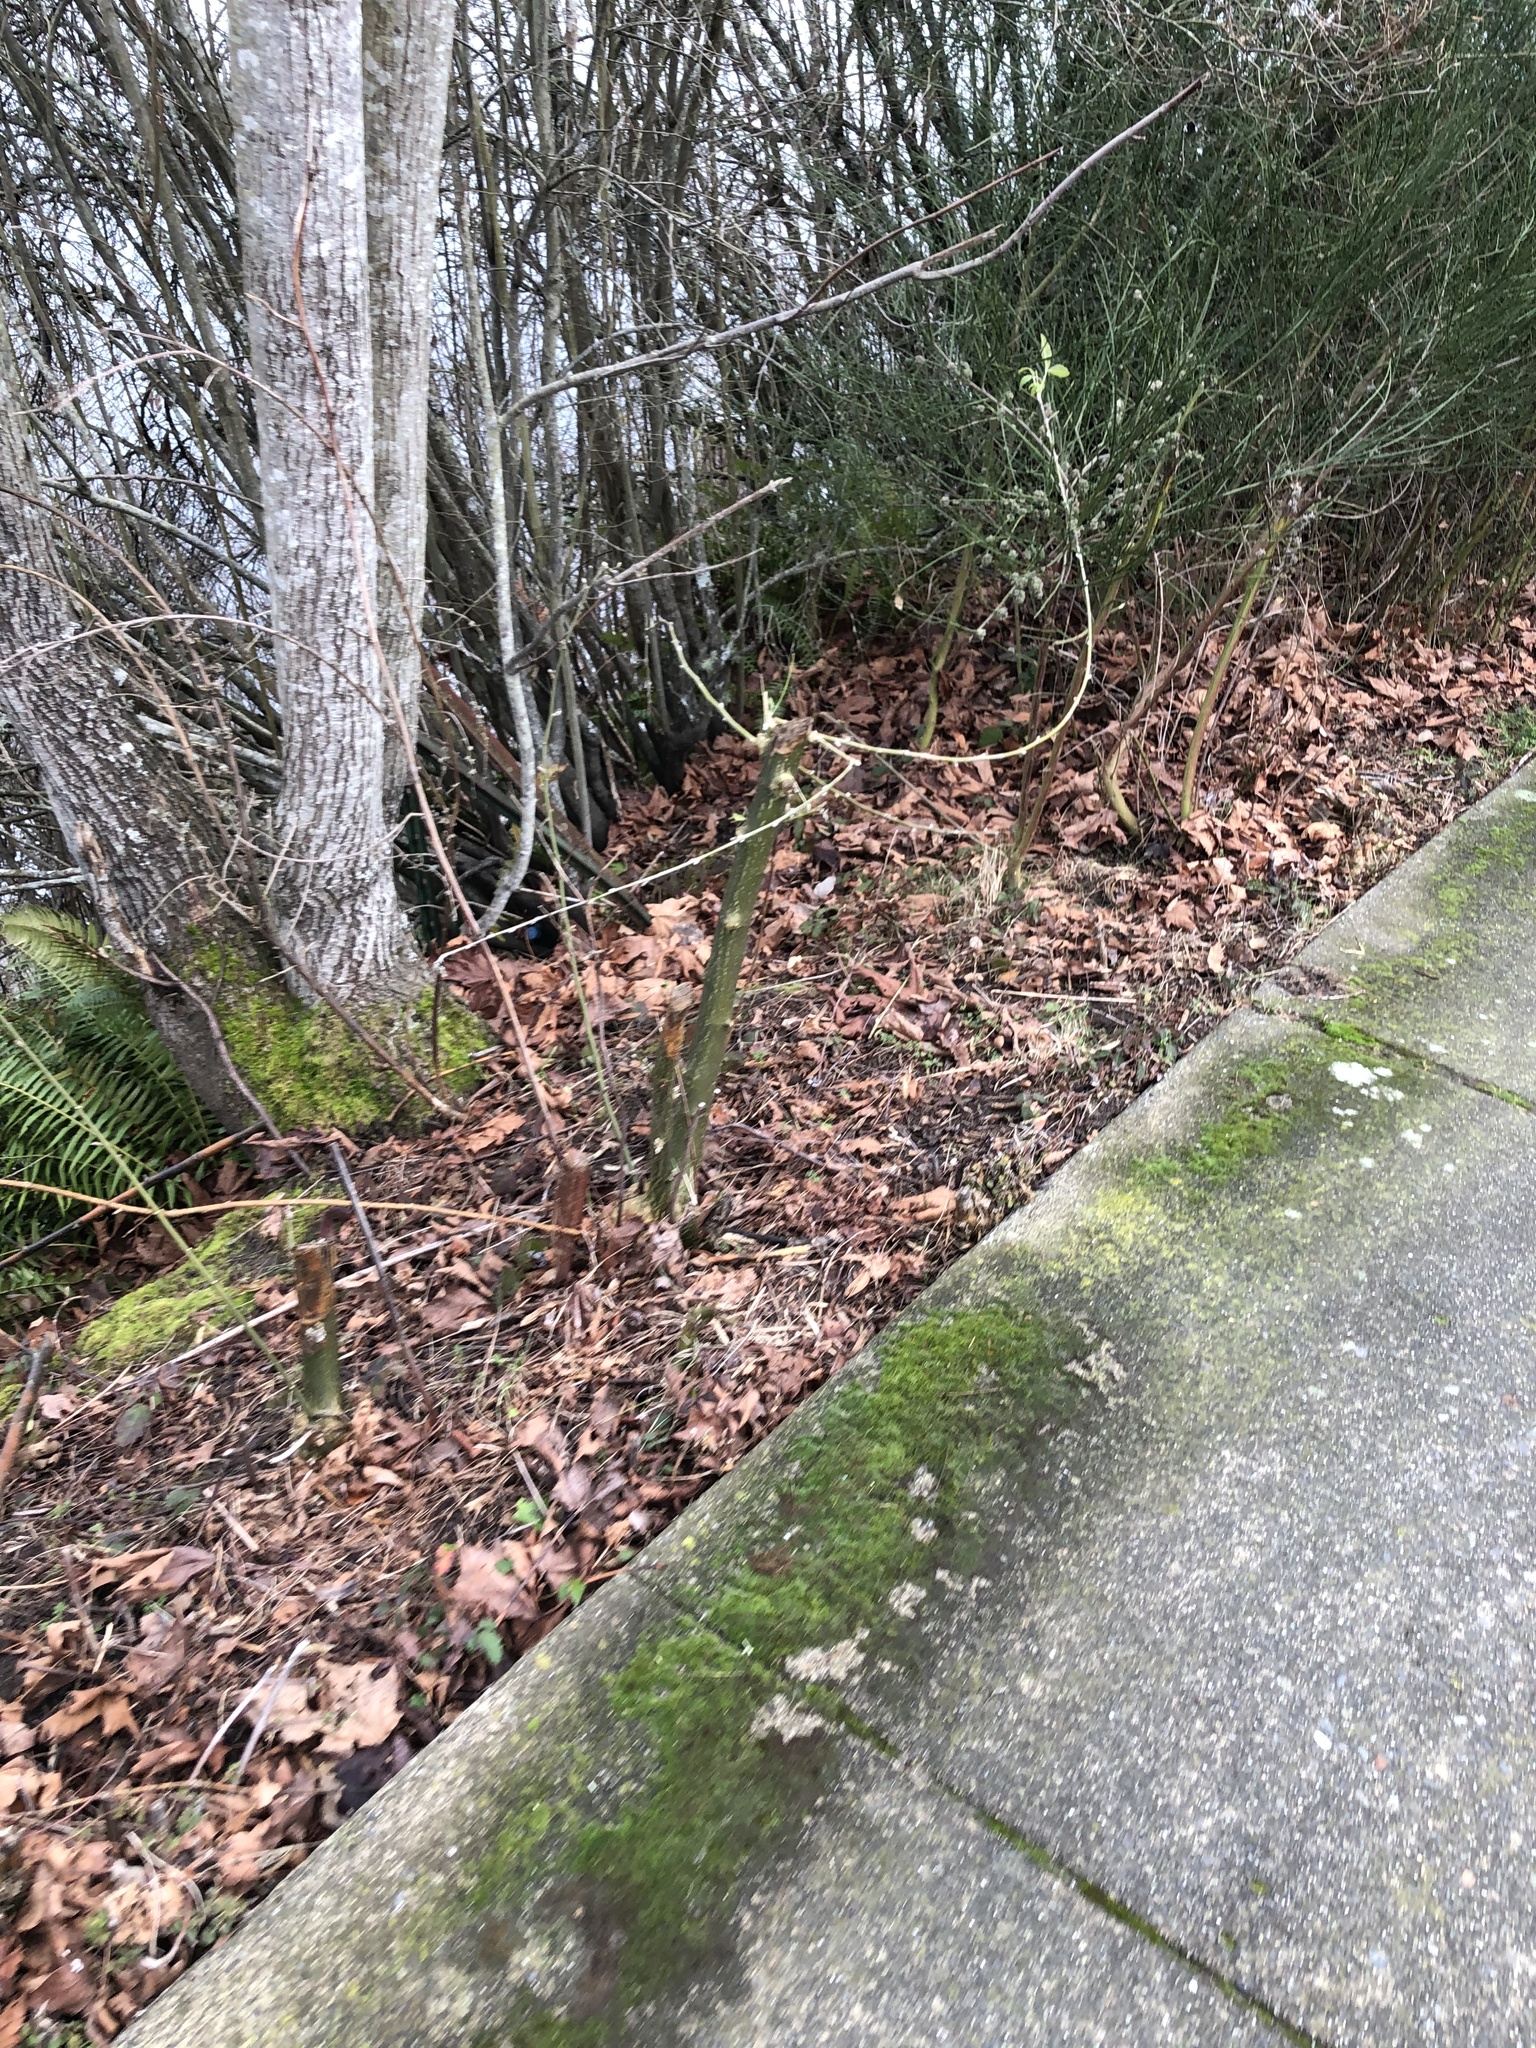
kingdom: Animalia
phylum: Arthropoda
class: Arachnida
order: Trombidiformes
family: Eriophyidae
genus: Aceria
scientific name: Aceria genistae
